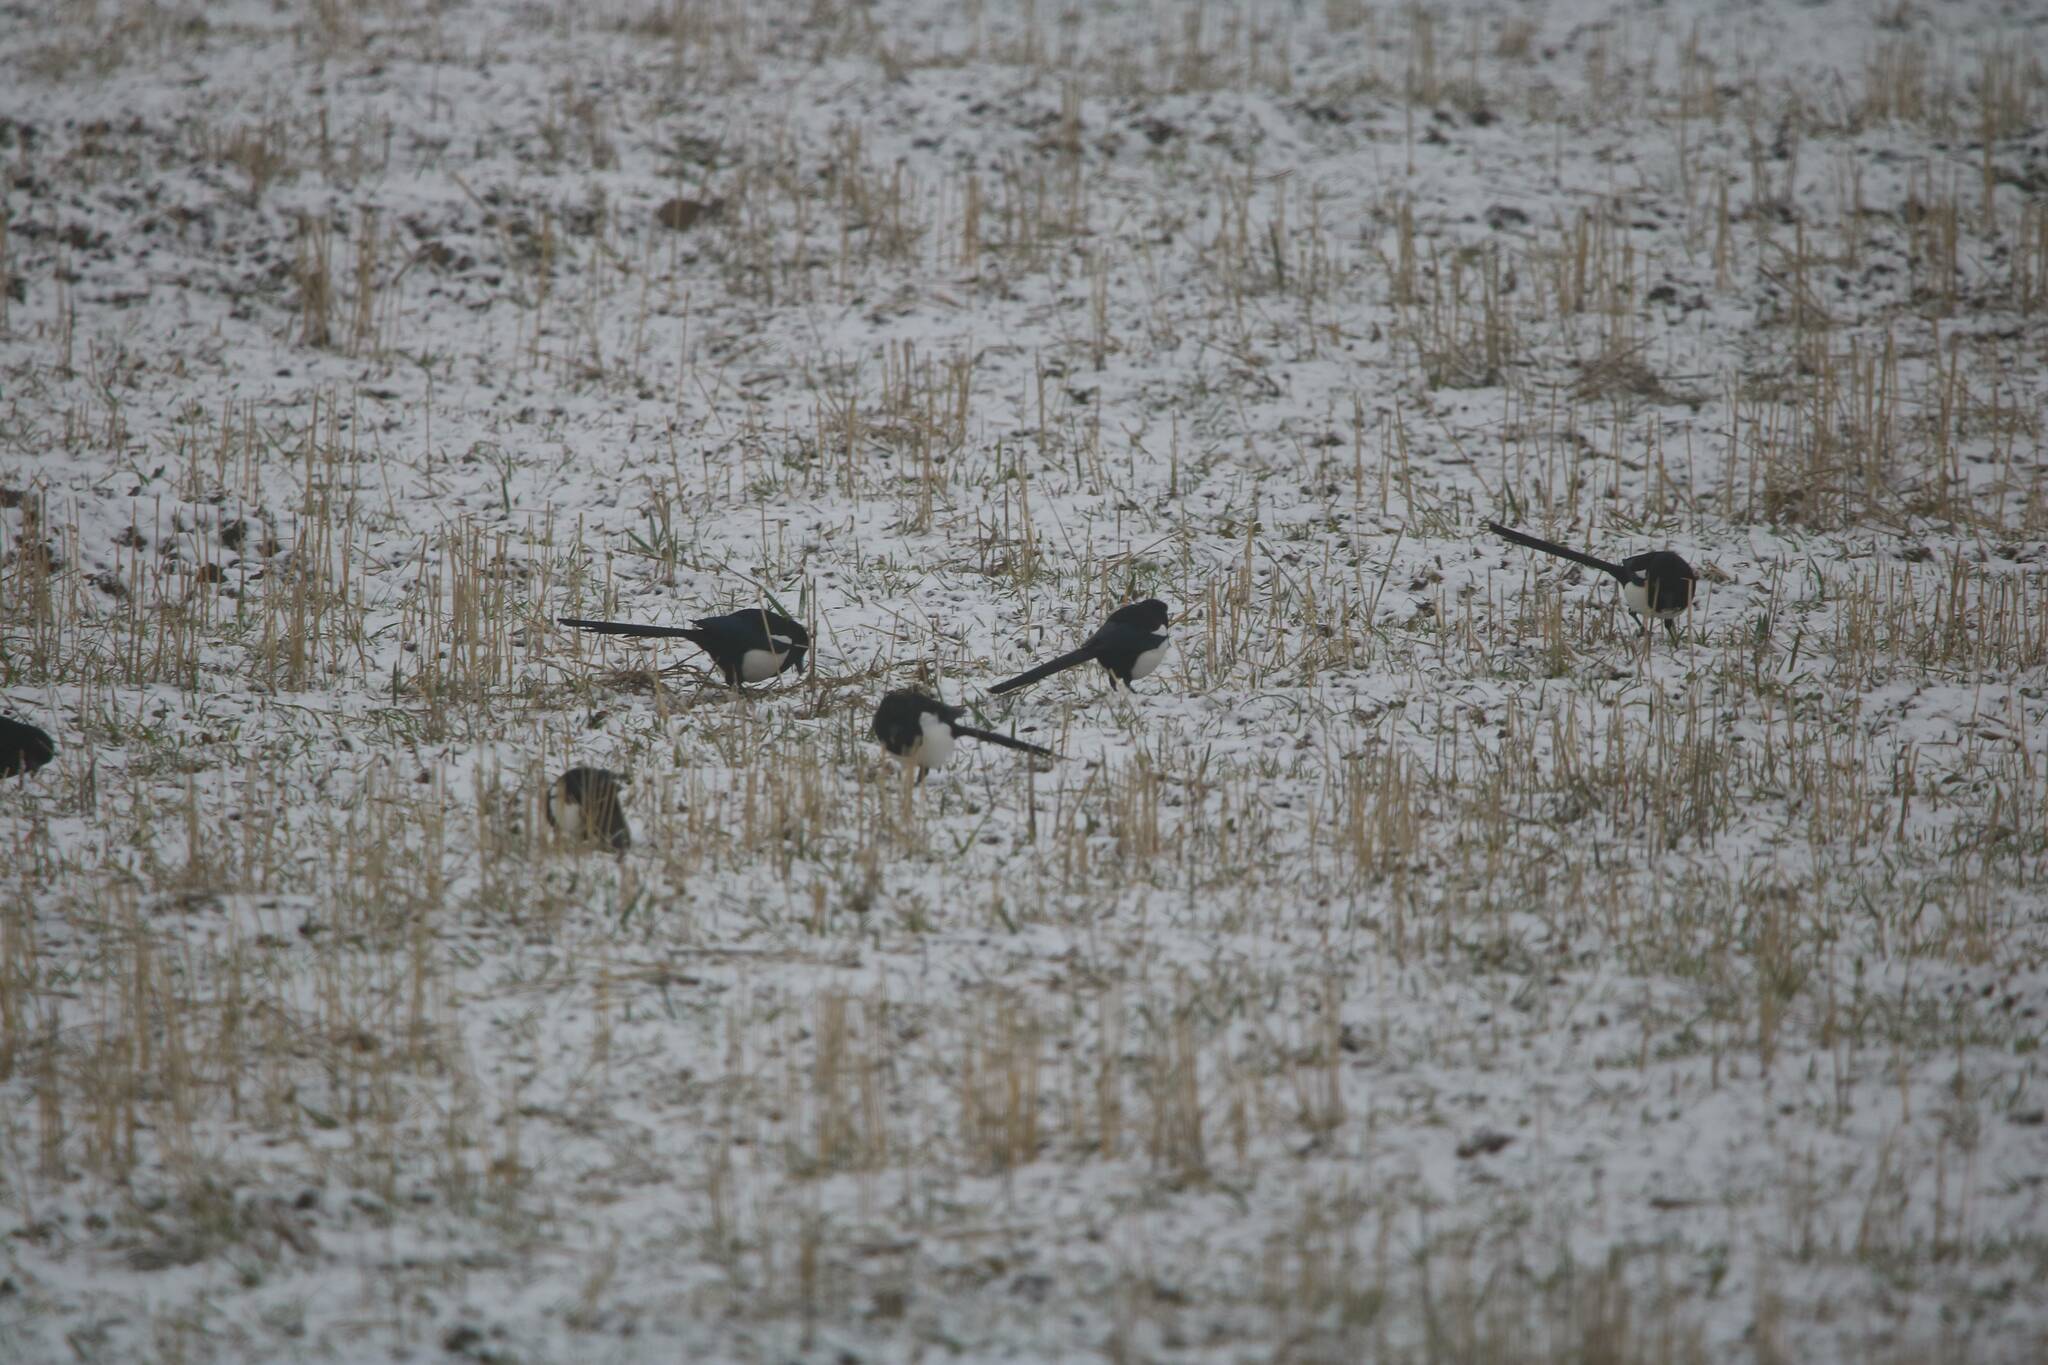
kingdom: Animalia
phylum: Chordata
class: Aves
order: Passeriformes
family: Corvidae
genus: Pica
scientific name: Pica mauritanica
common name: Maghreb magpie
